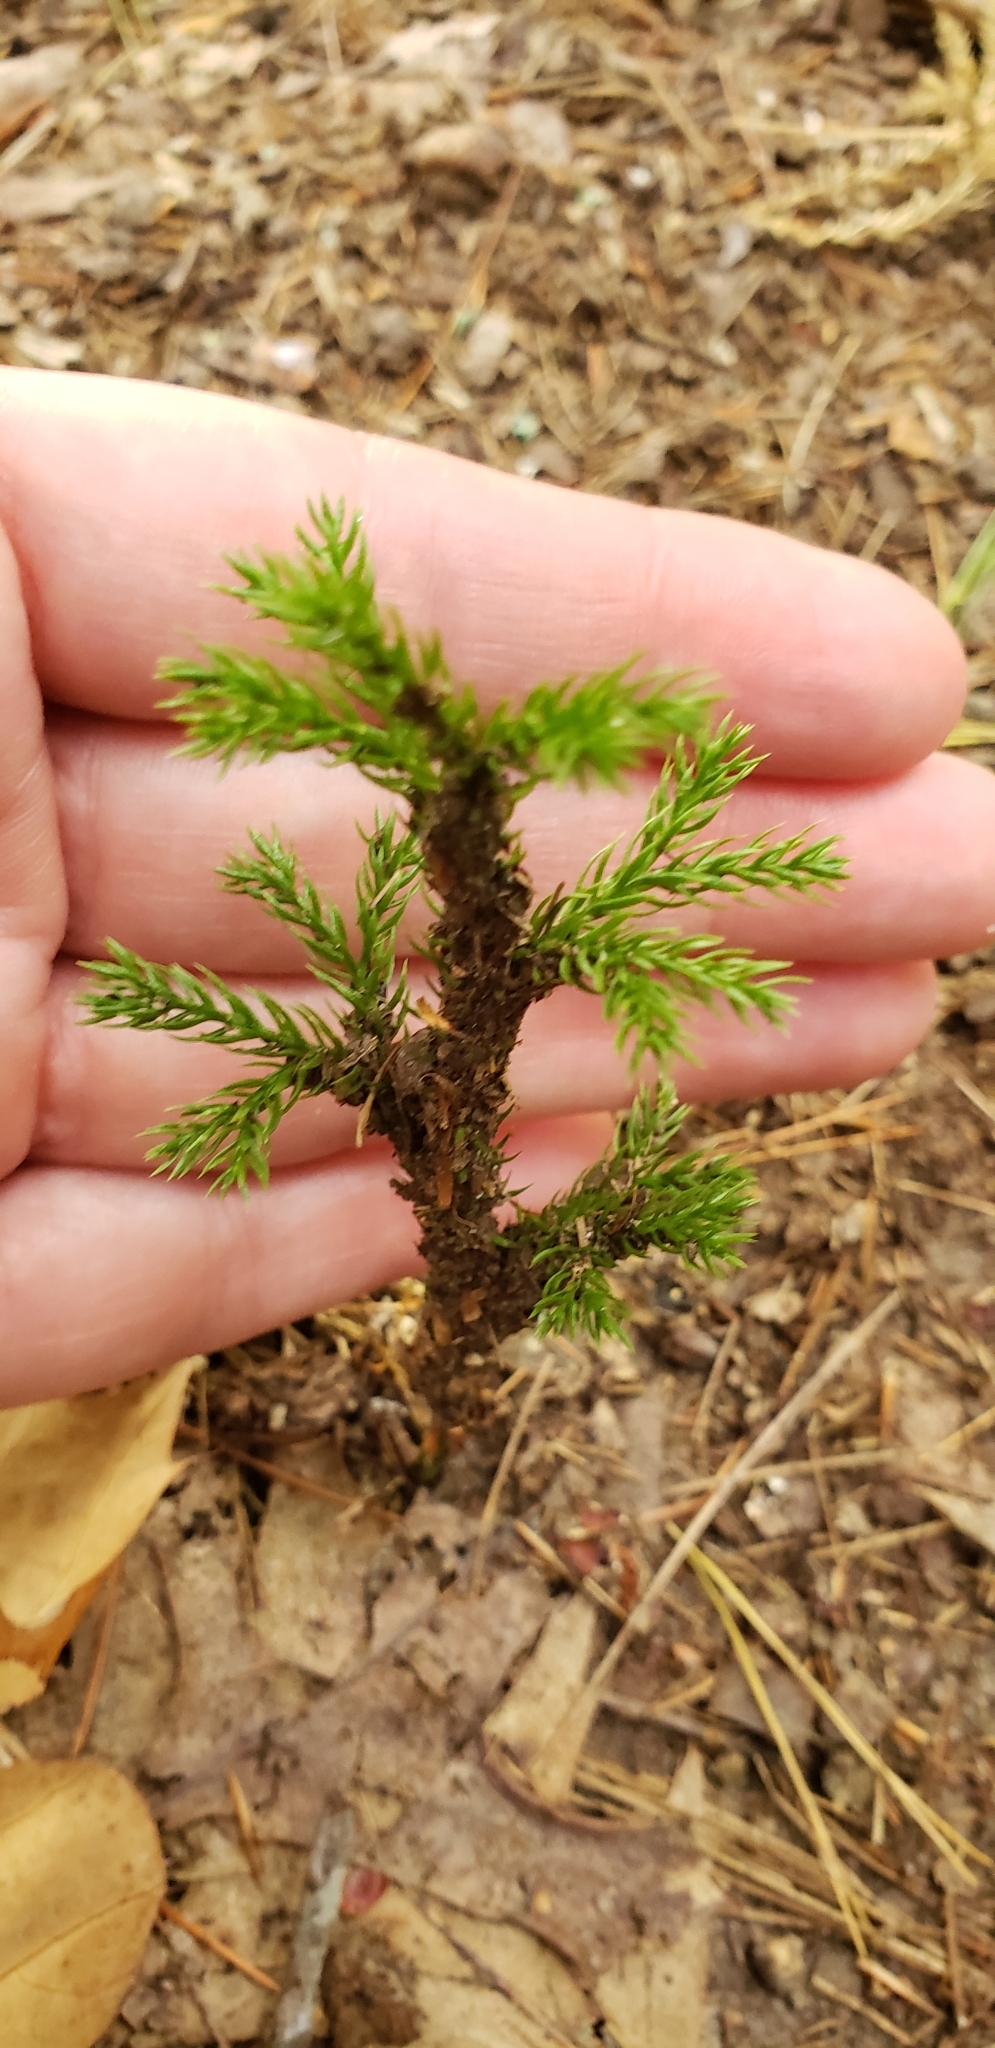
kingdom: Plantae
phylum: Tracheophyta
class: Pinopsida
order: Pinales
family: Cupressaceae
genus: Juniperus
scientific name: Juniperus virginiana
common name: Red juniper
